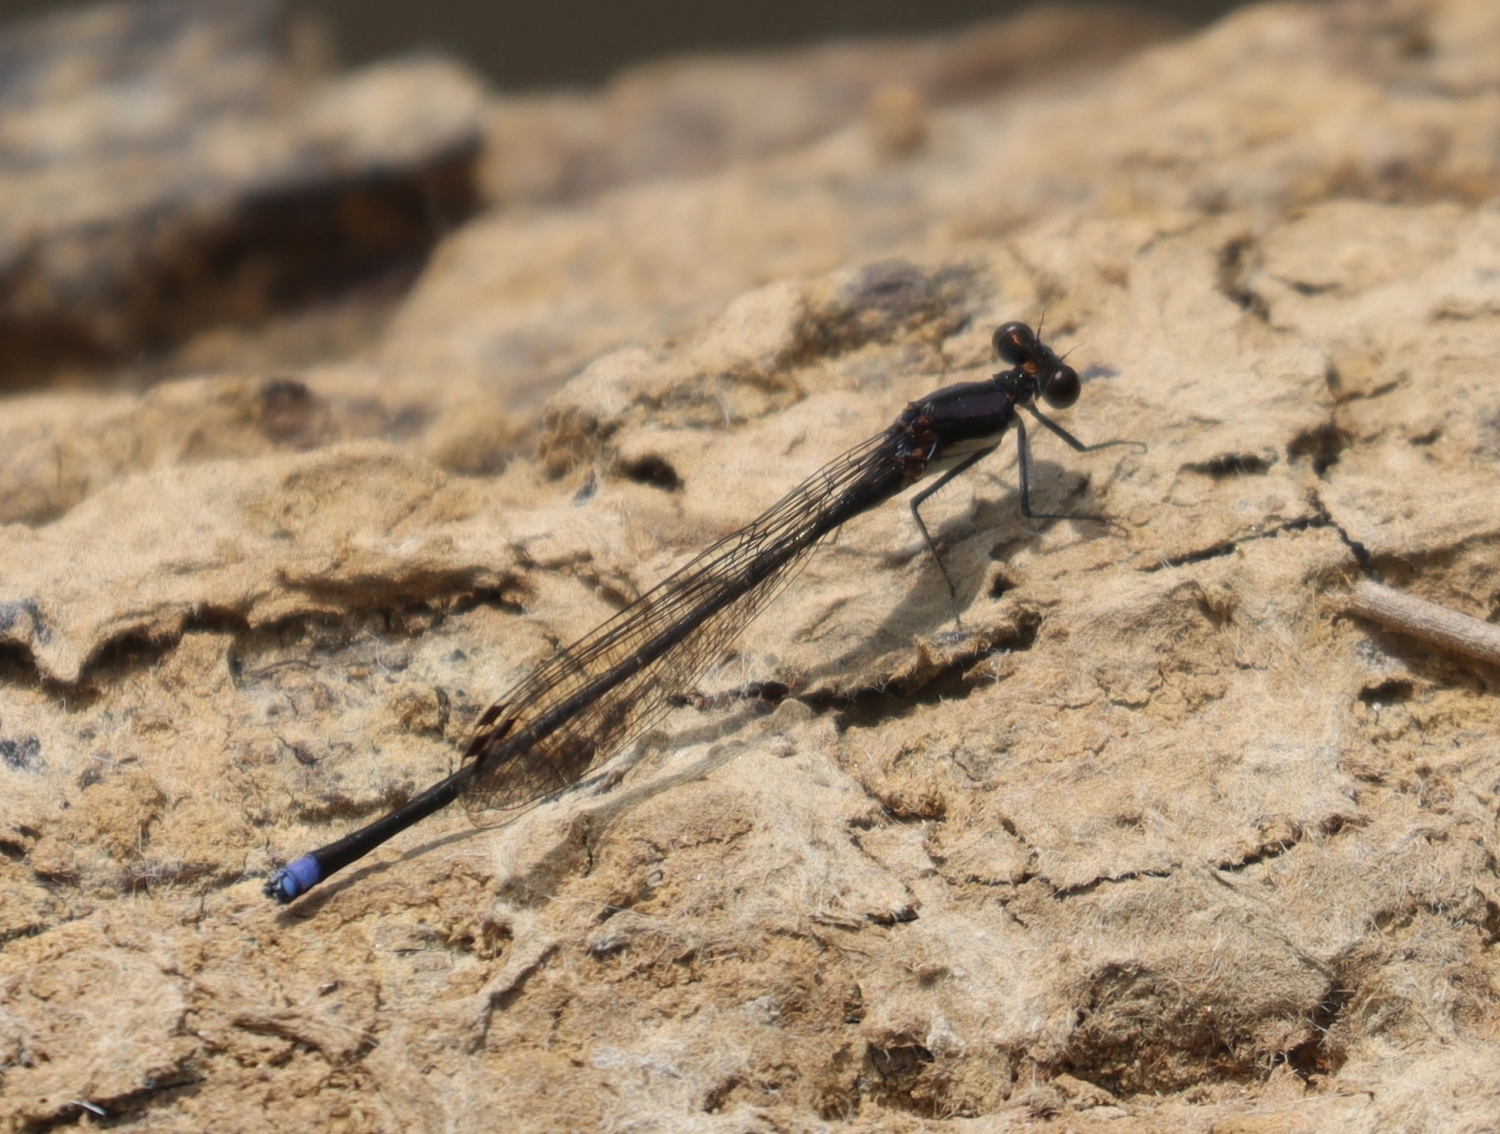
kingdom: Animalia
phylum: Arthropoda
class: Insecta
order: Odonata
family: Coenagrionidae
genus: Argia
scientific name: Argia tibialis
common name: Blue-tipped dancer
